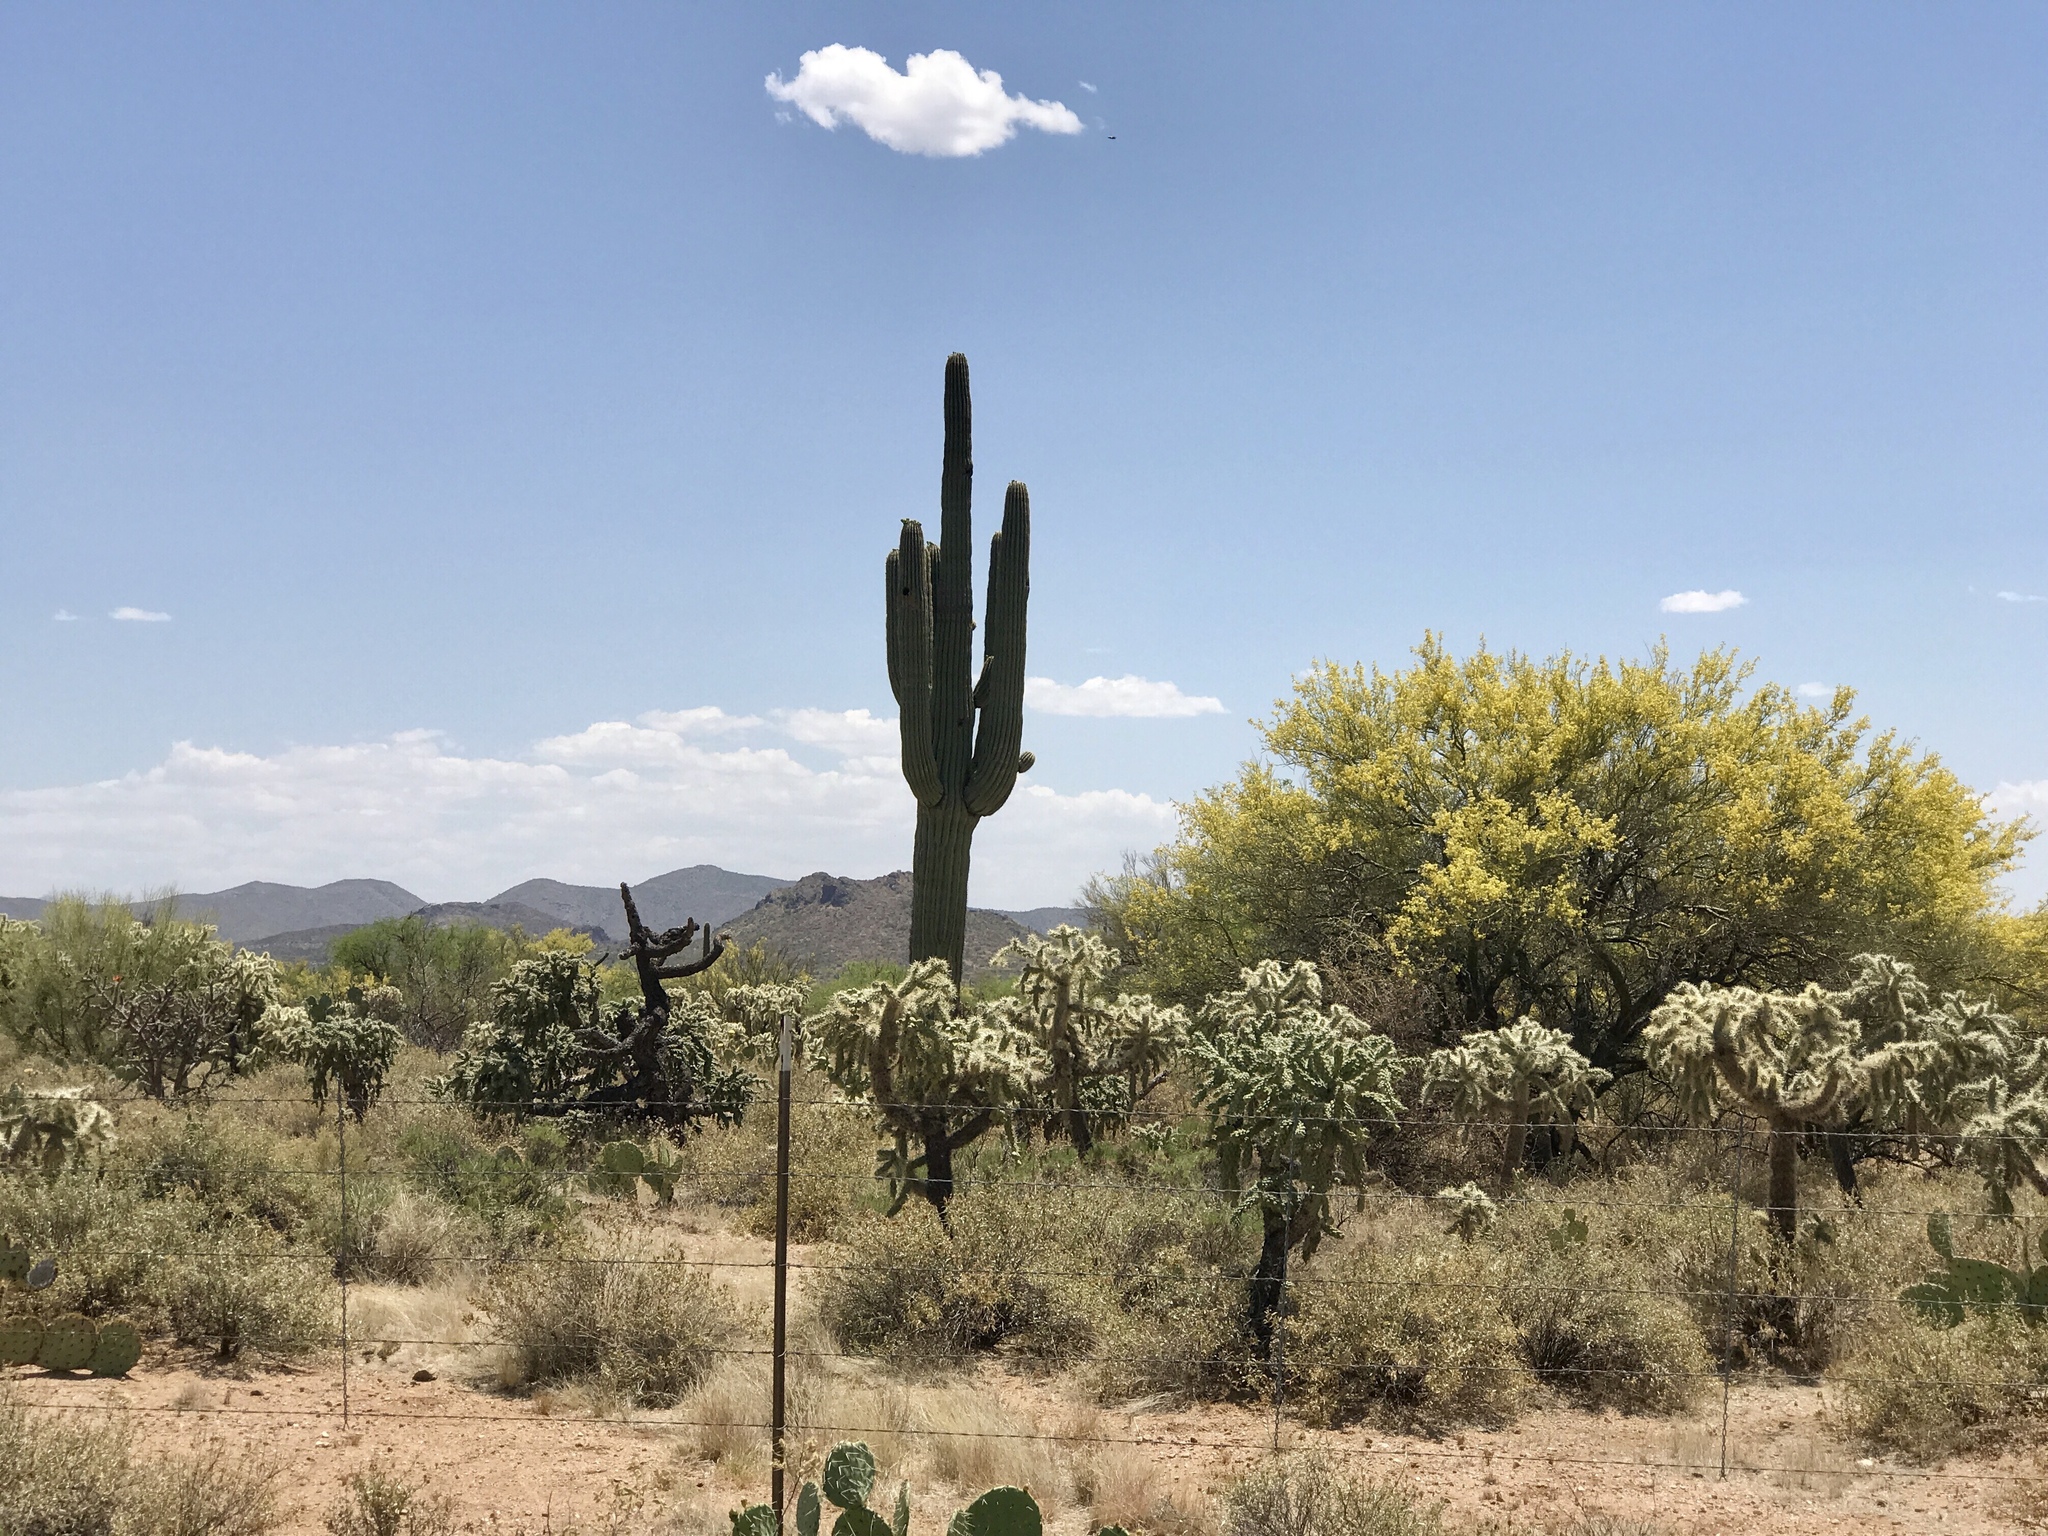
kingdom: Plantae
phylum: Tracheophyta
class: Magnoliopsida
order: Fabales
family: Fabaceae
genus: Parkinsonia
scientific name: Parkinsonia microphylla
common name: Yellow paloverde
